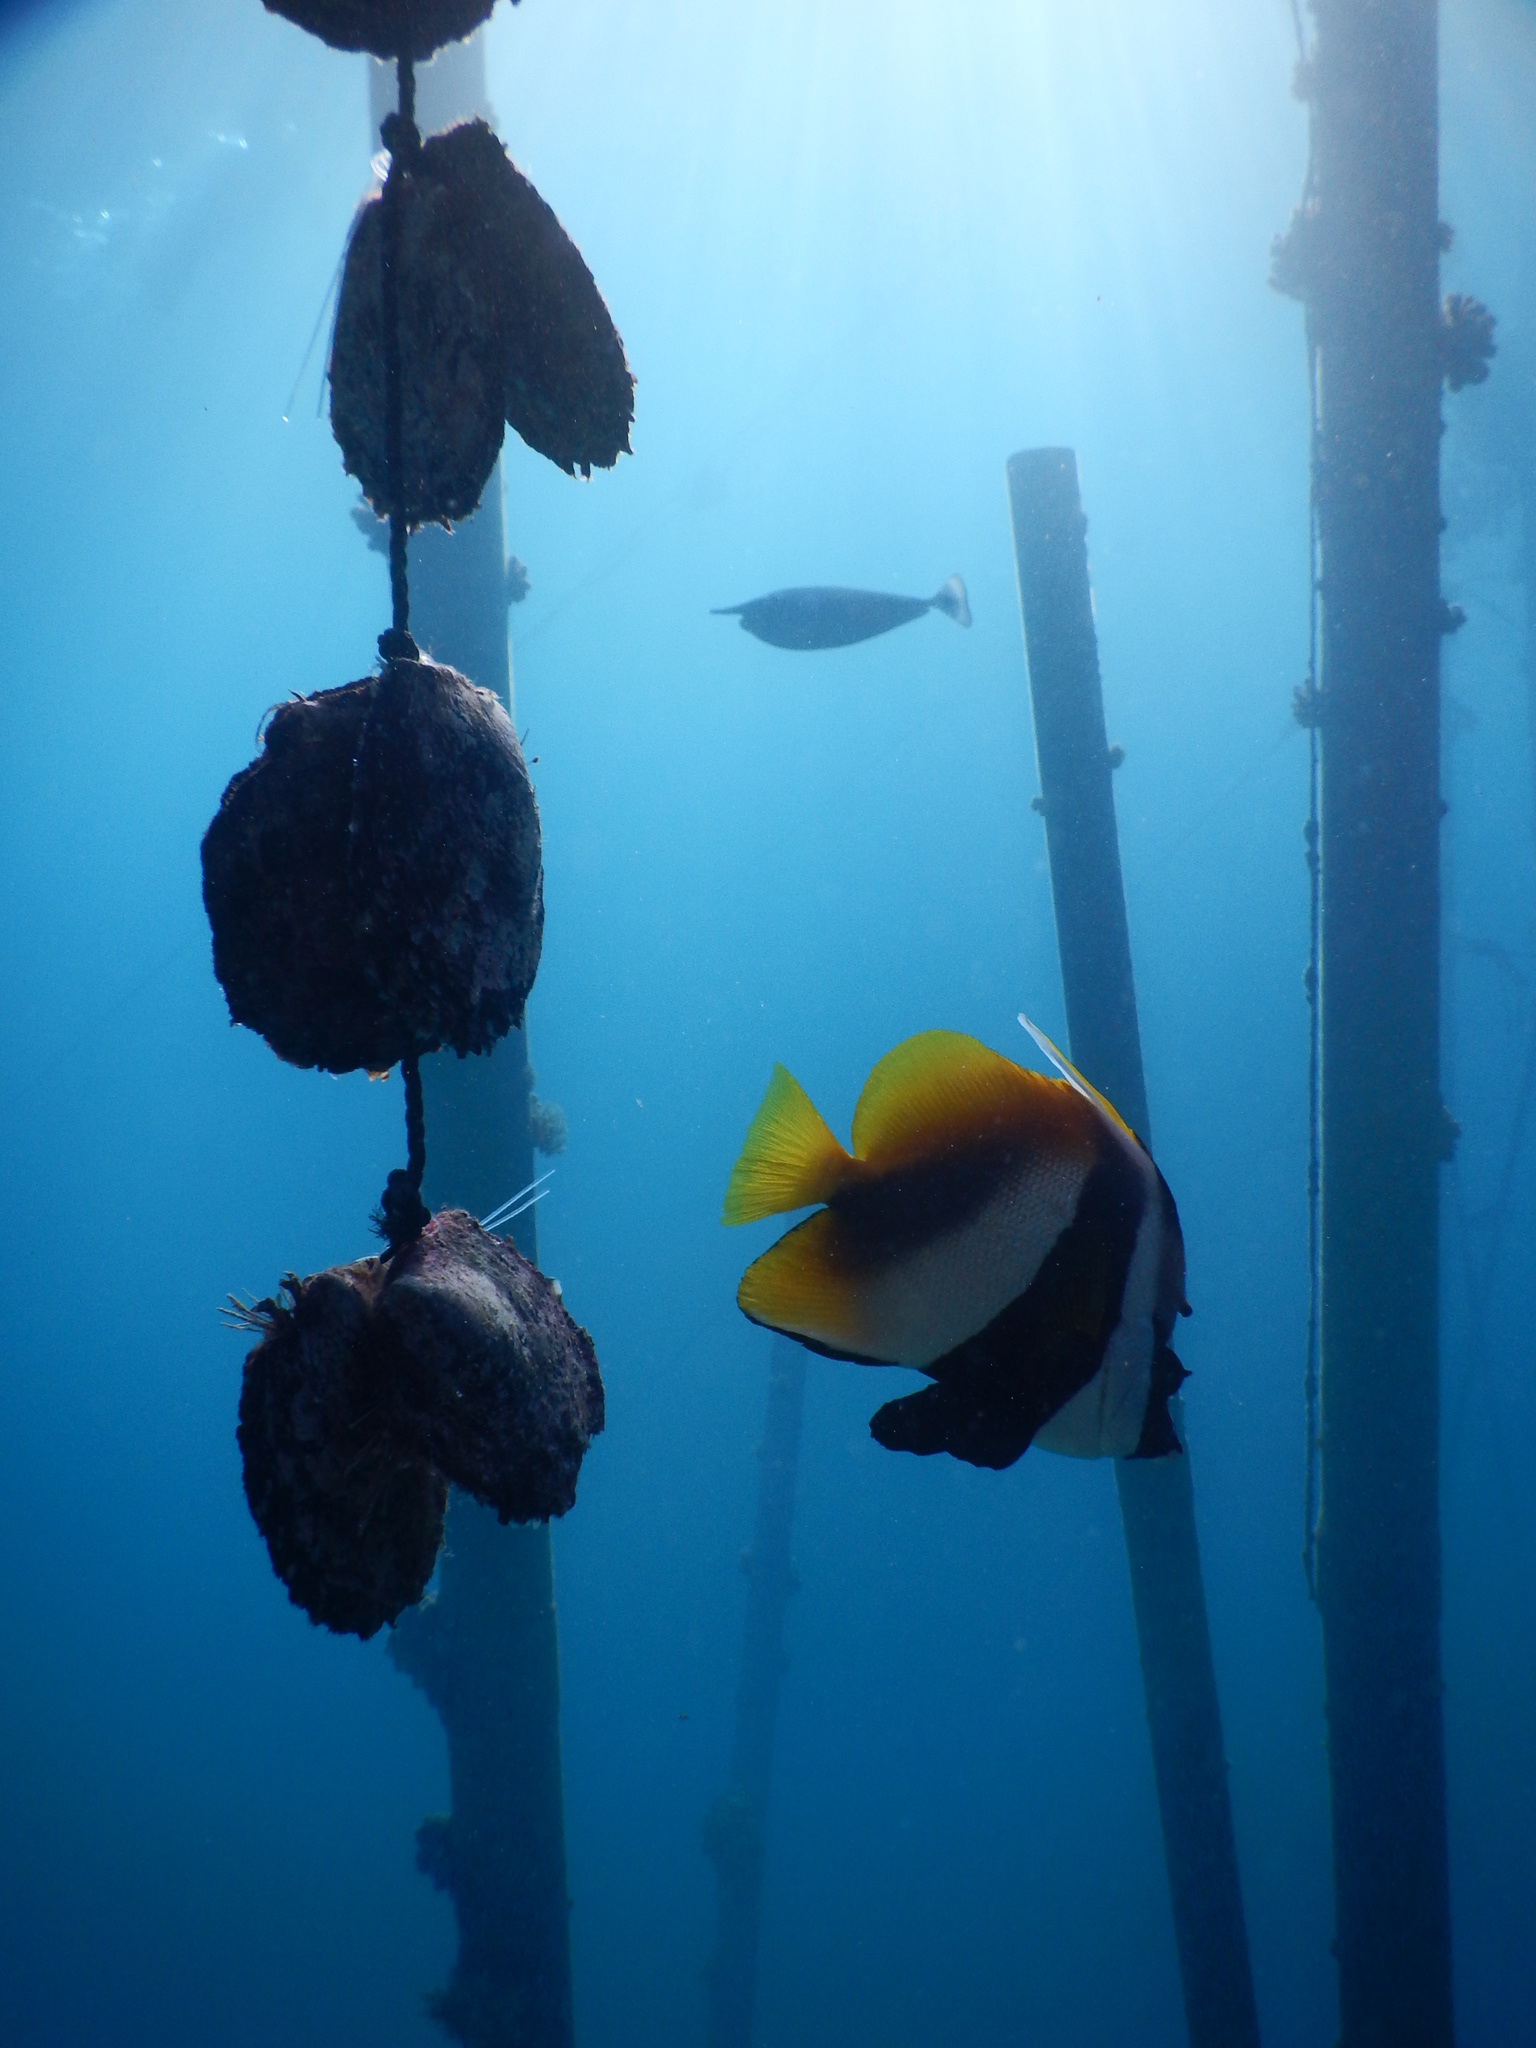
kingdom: Animalia
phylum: Chordata
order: Perciformes
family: Chaetodontidae
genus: Heniochus
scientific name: Heniochus monoceros
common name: Masked bannerfish
